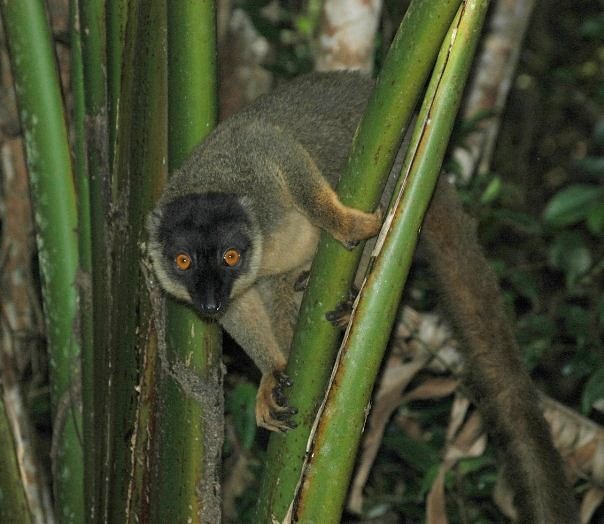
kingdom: Animalia
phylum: Chordata
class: Mammalia
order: Primates
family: Lemuridae
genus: Eulemur
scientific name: Eulemur fulvus
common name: Brown lemur
